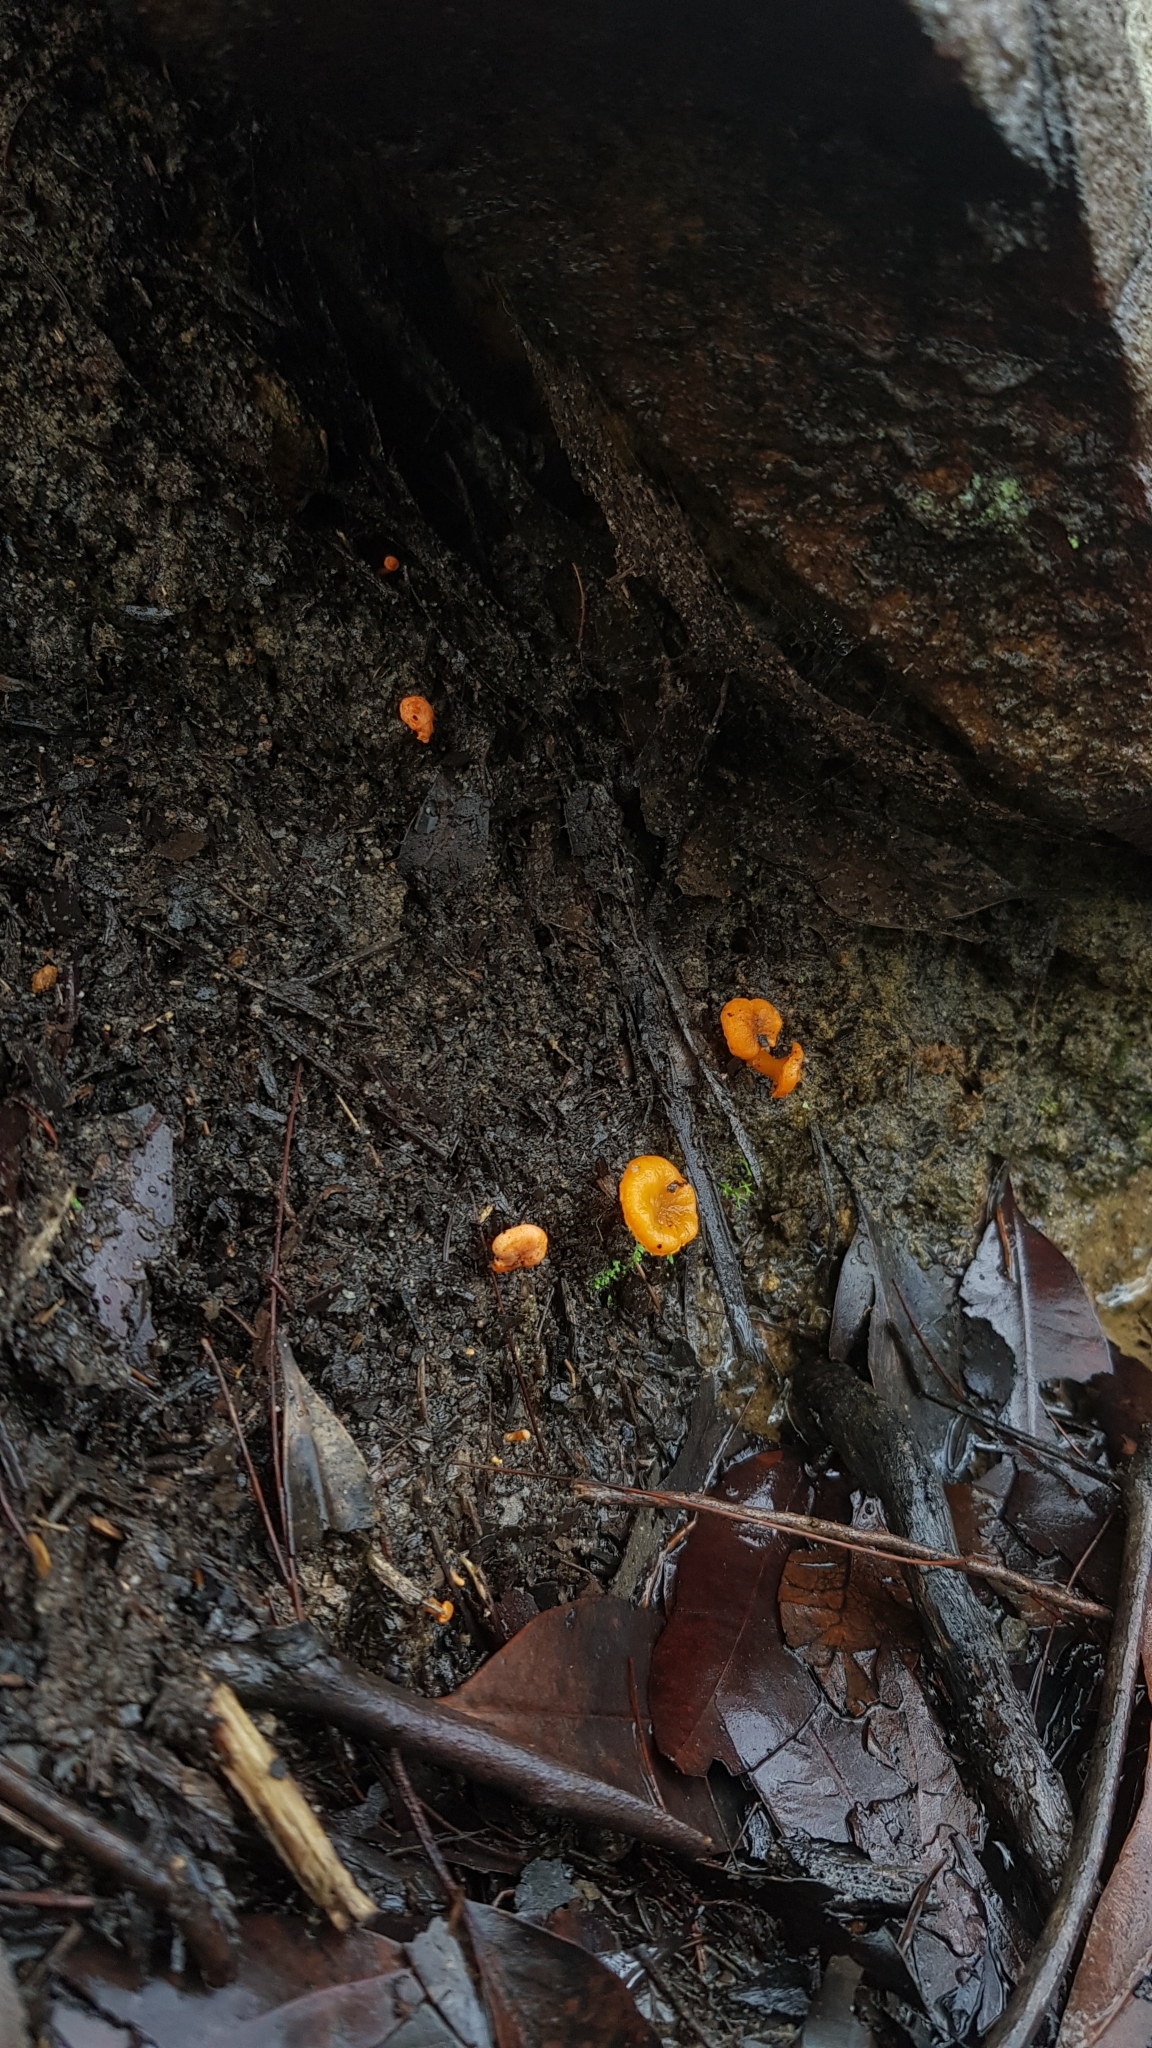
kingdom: Fungi
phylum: Basidiomycota
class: Agaricomycetes
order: Cantharellales
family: Hydnaceae
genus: Cantharellus
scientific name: Cantharellus
